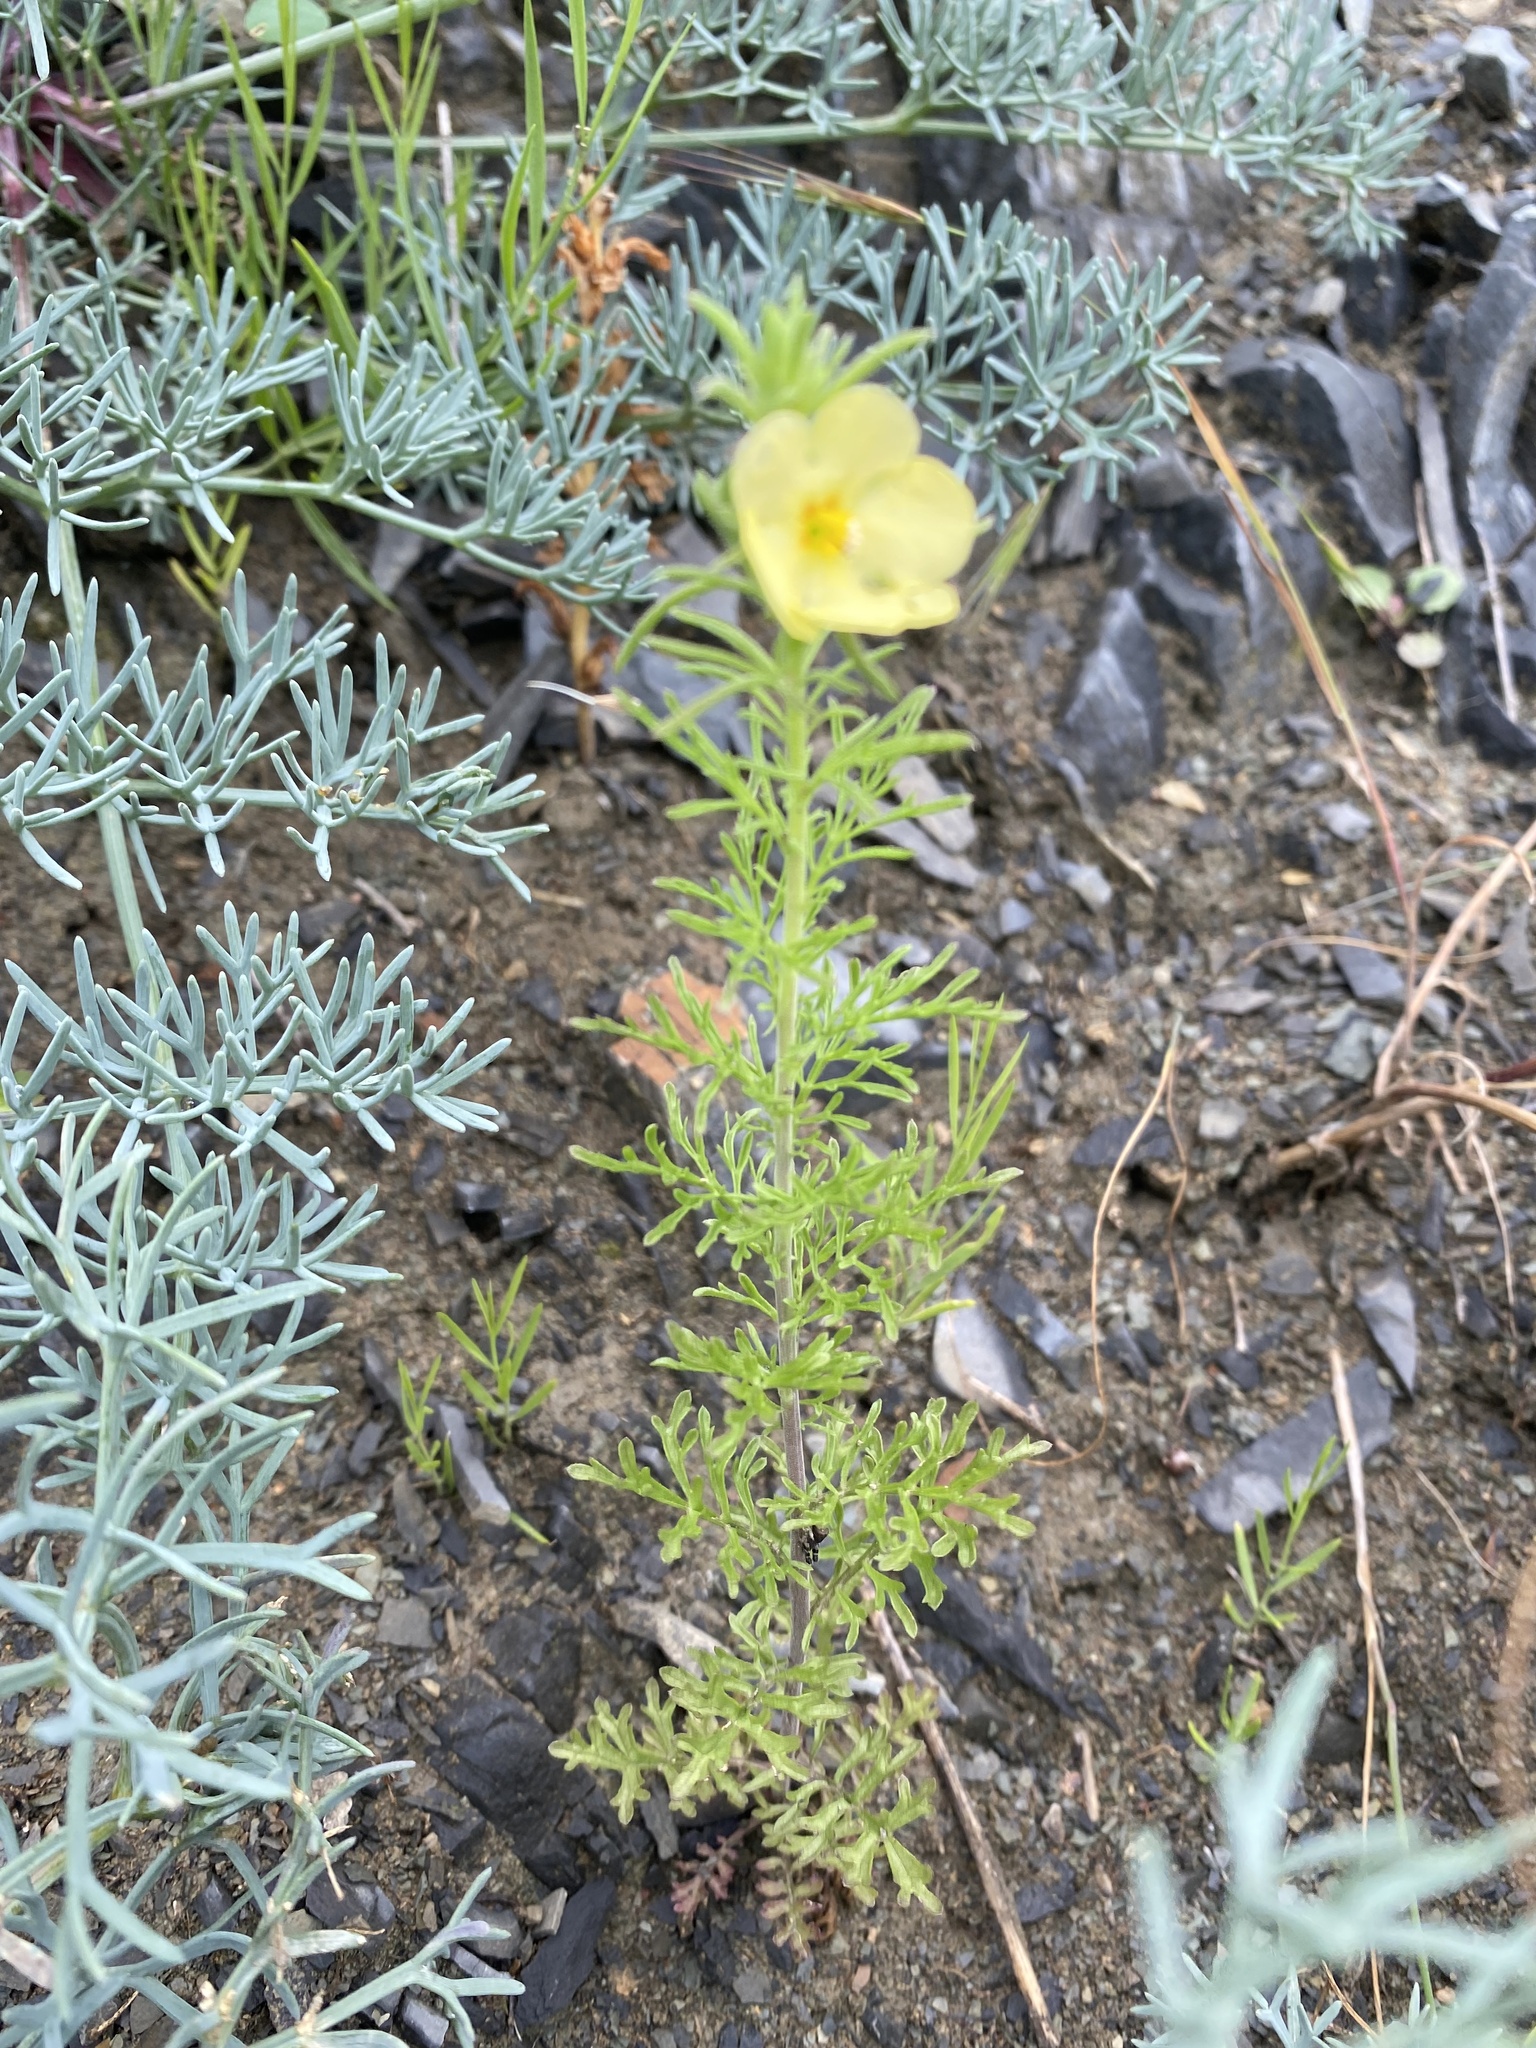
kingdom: Plantae
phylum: Tracheophyta
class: Magnoliopsida
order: Lamiales
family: Scrophulariaceae
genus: Verbascum
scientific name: Verbascum orientale
